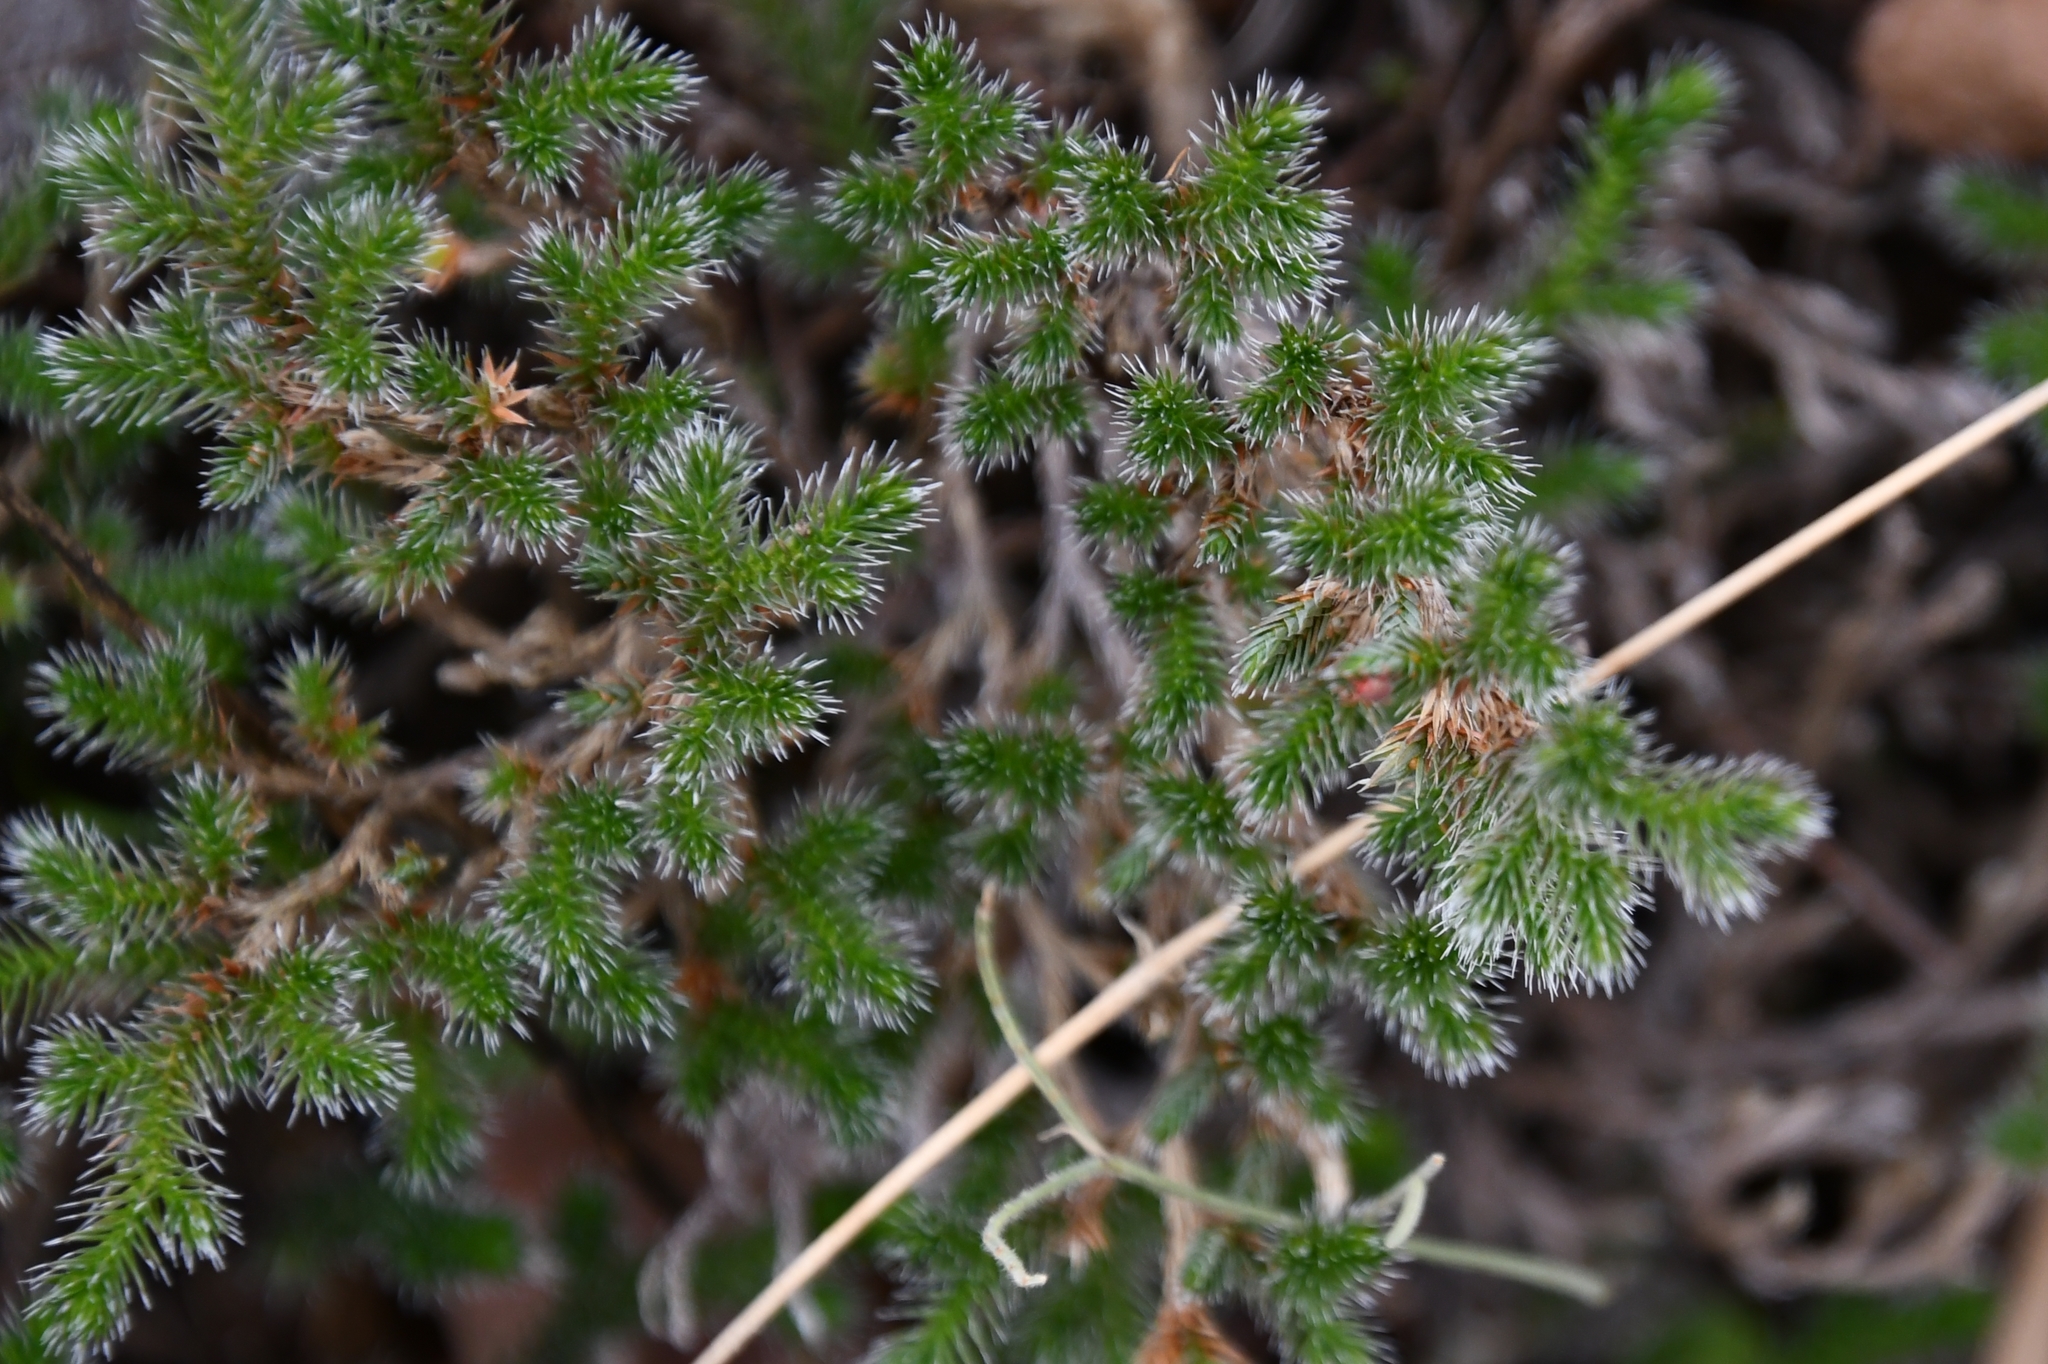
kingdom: Plantae
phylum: Tracheophyta
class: Lycopodiopsida
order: Selaginellales
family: Selaginellaceae
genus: Selaginella
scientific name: Selaginella rupincola
